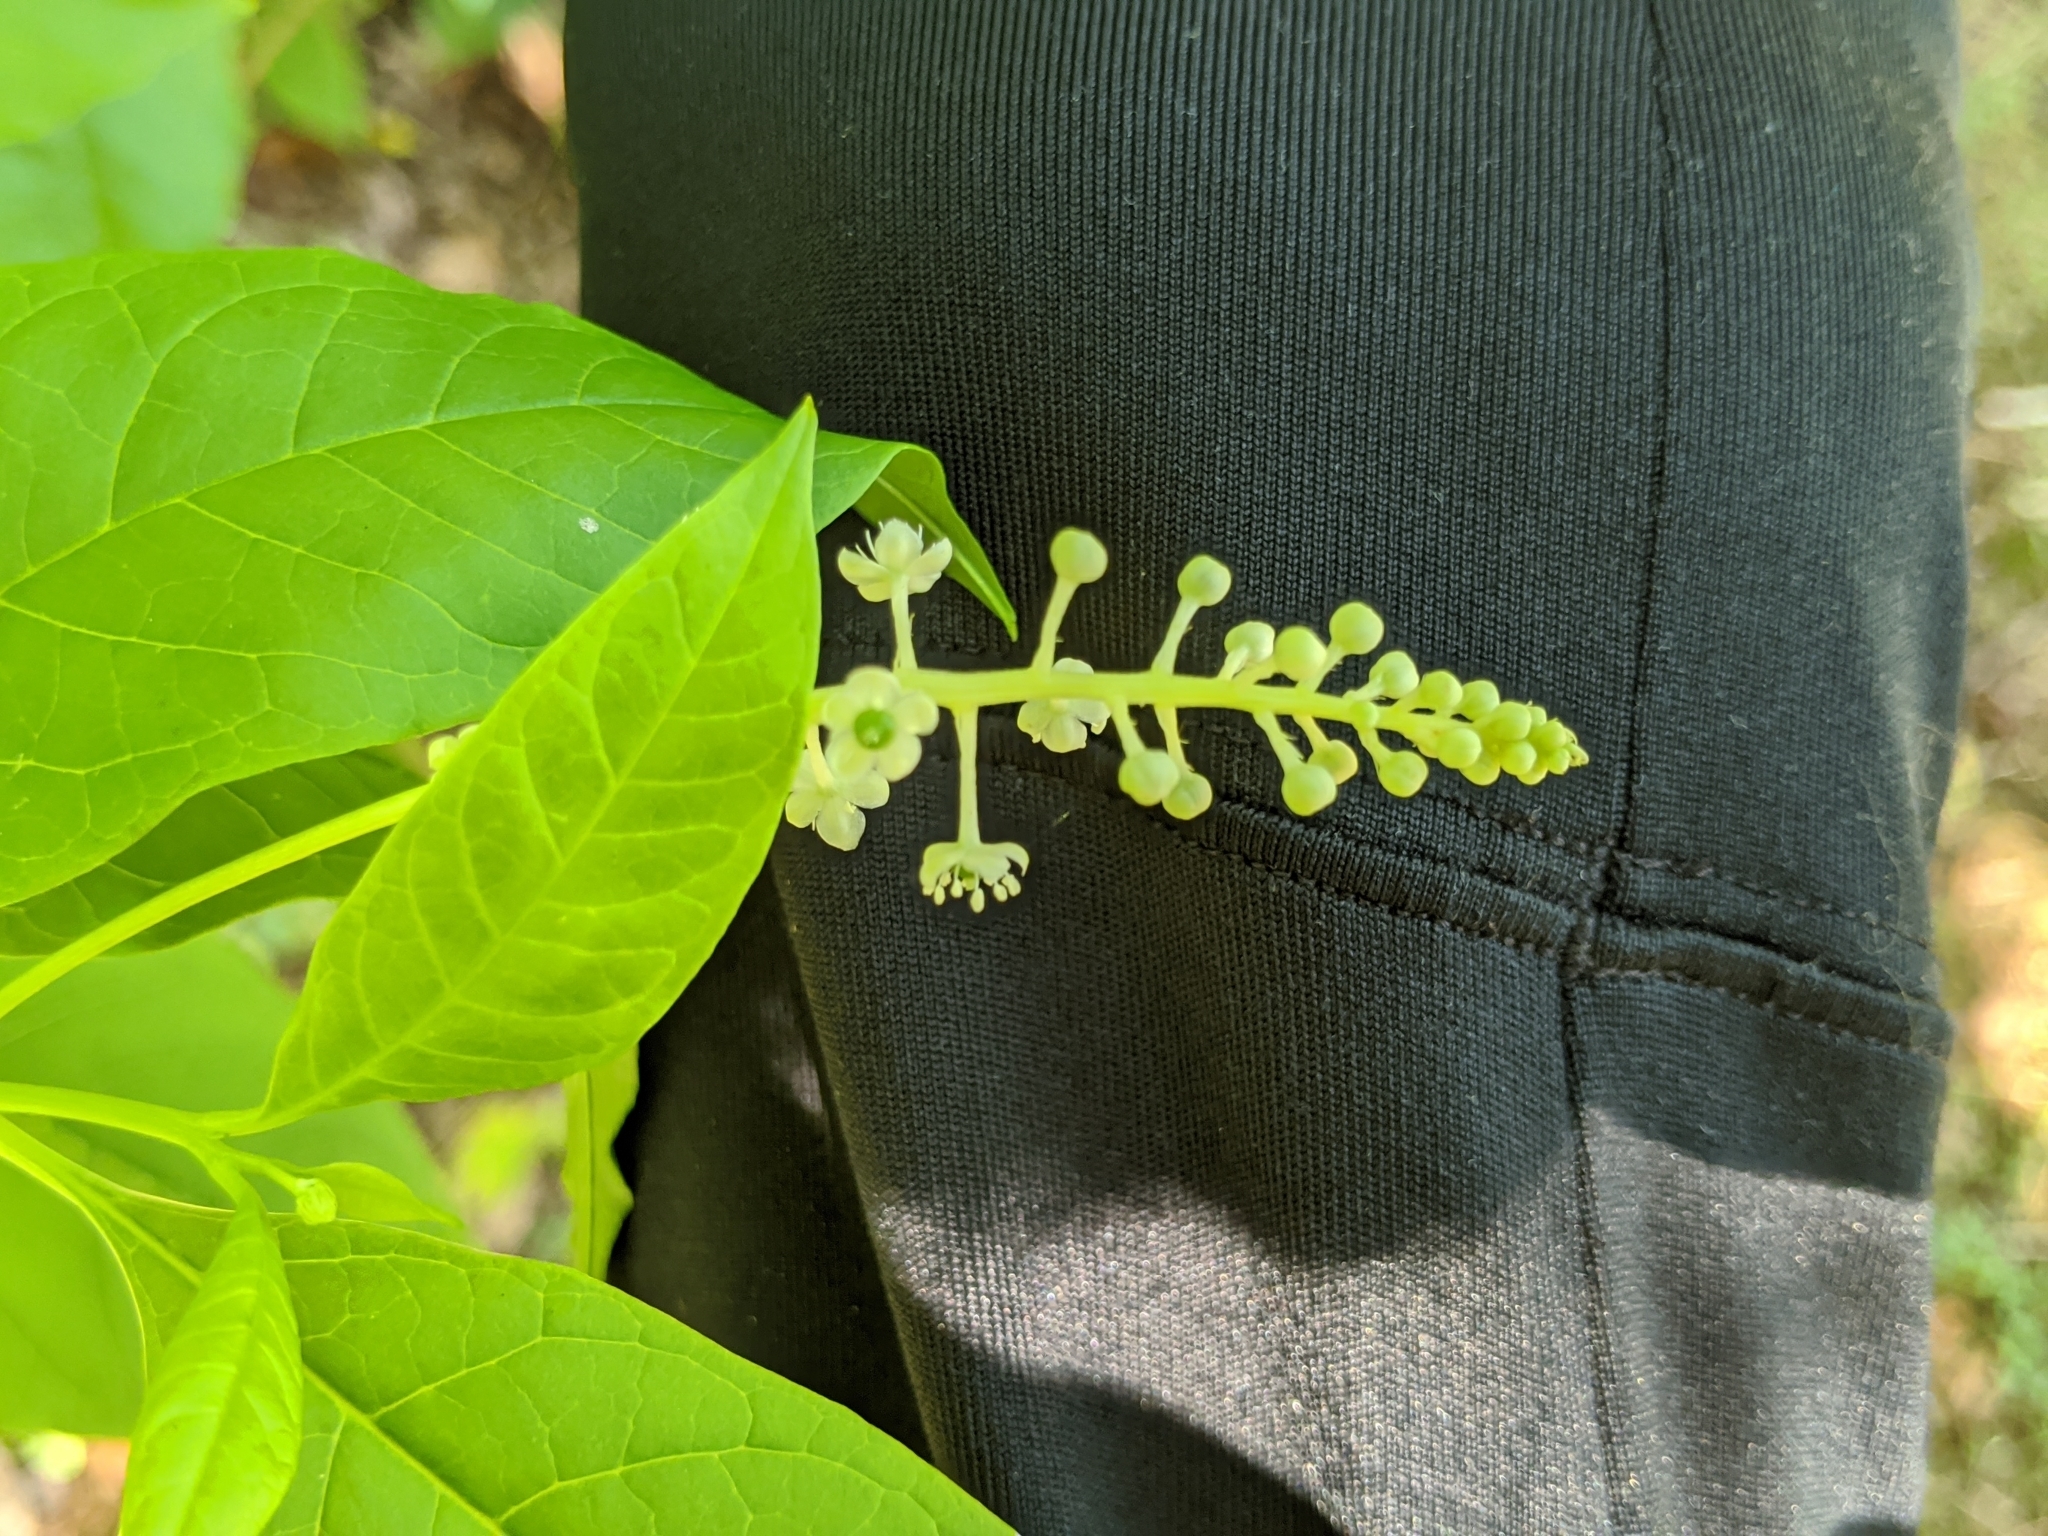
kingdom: Plantae
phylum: Tracheophyta
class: Magnoliopsida
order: Caryophyllales
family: Phytolaccaceae
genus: Phytolacca
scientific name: Phytolacca americana
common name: American pokeweed
